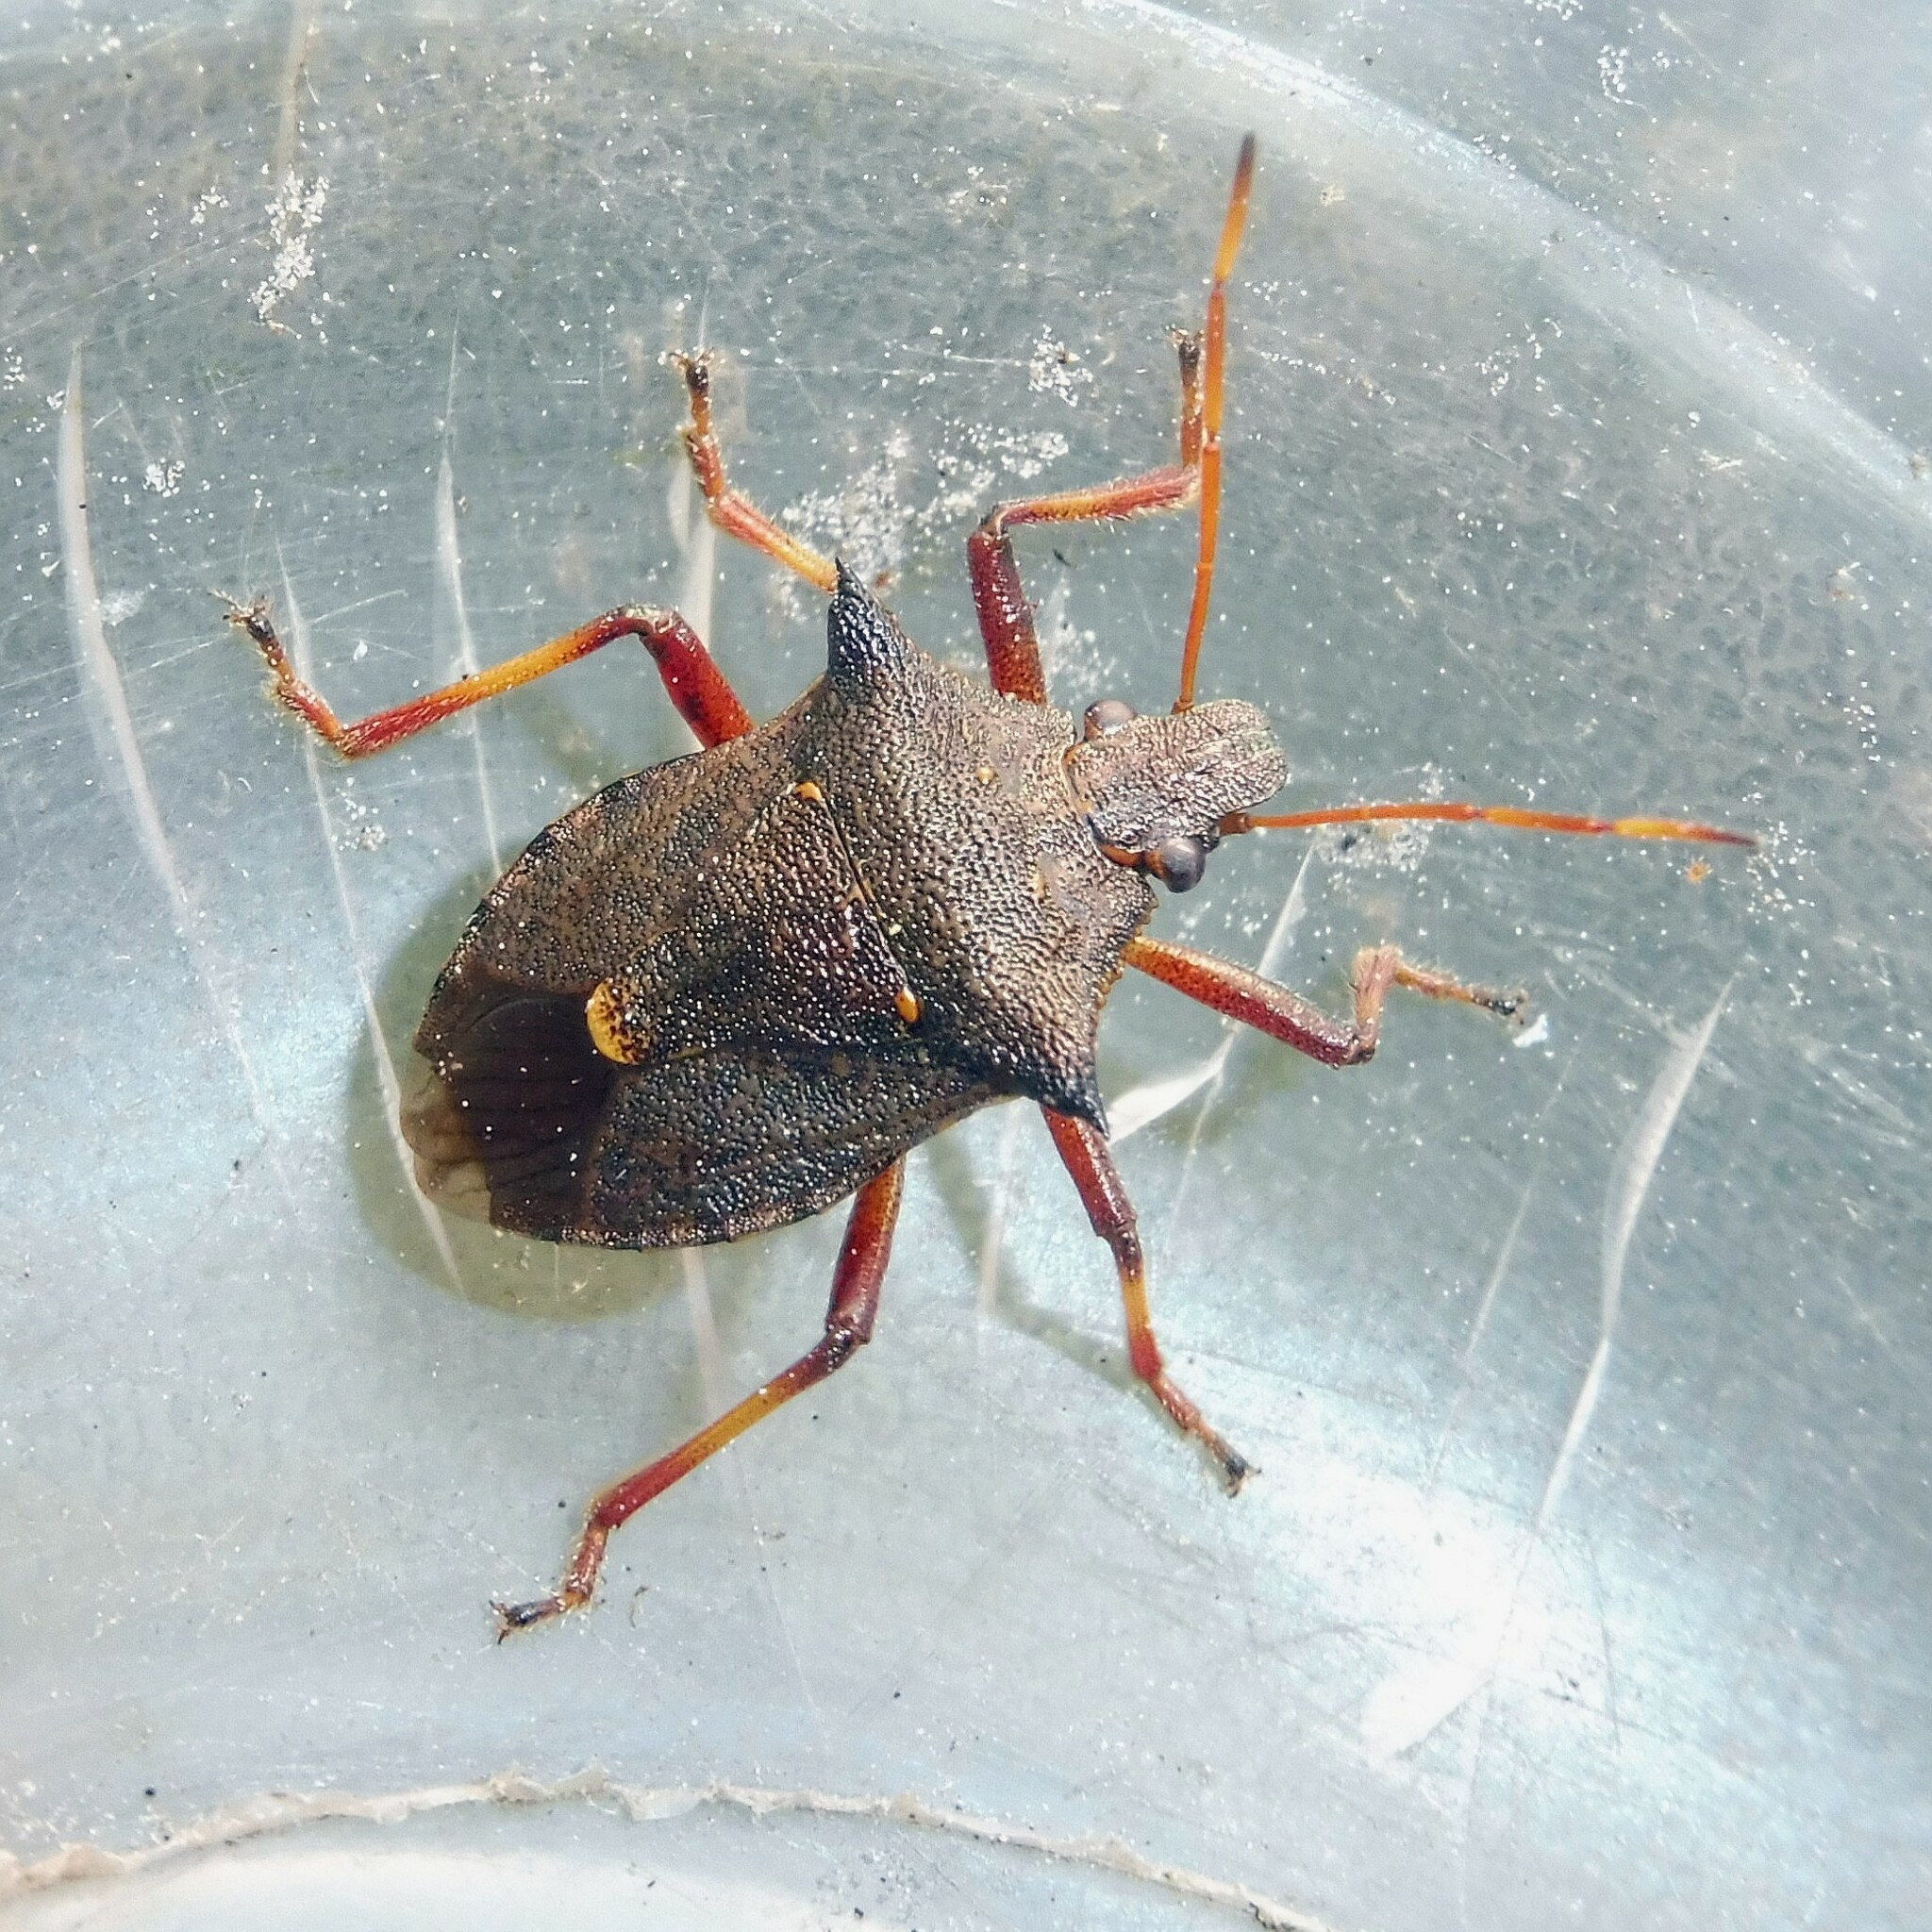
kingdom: Animalia
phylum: Arthropoda
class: Insecta
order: Hemiptera
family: Pentatomidae
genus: Picromerus
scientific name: Picromerus bidens
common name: Spiked shieldbug
